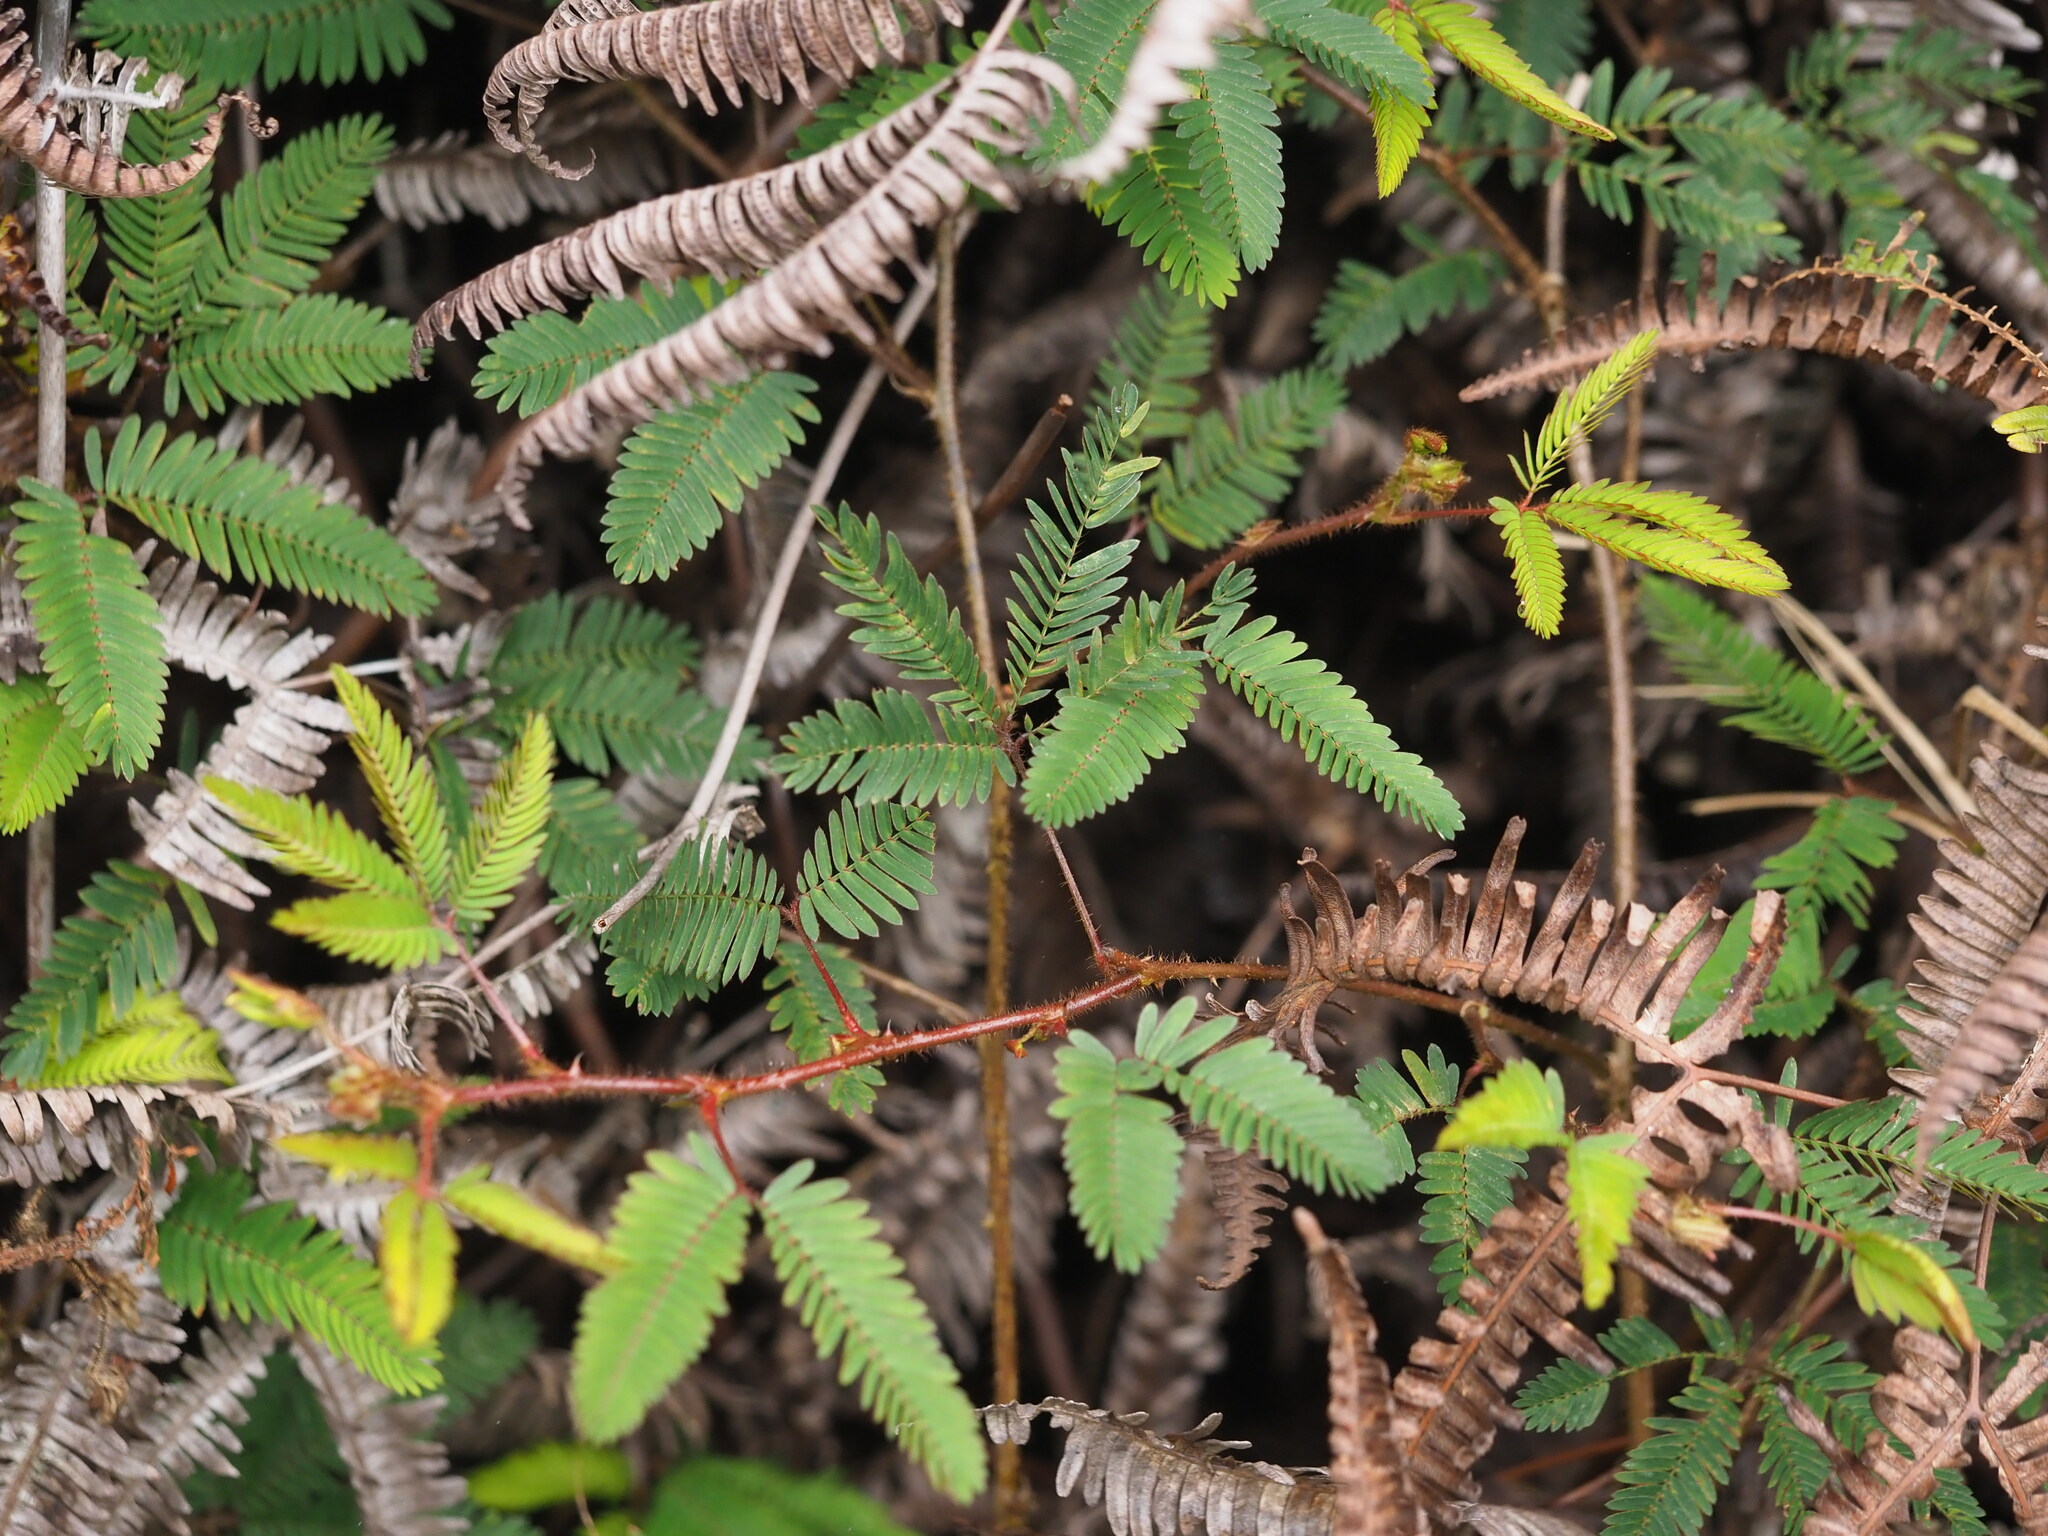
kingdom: Plantae
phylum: Tracheophyta
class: Magnoliopsida
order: Fabales
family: Fabaceae
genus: Mimosa
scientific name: Mimosa pudica
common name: Sensitive plant
